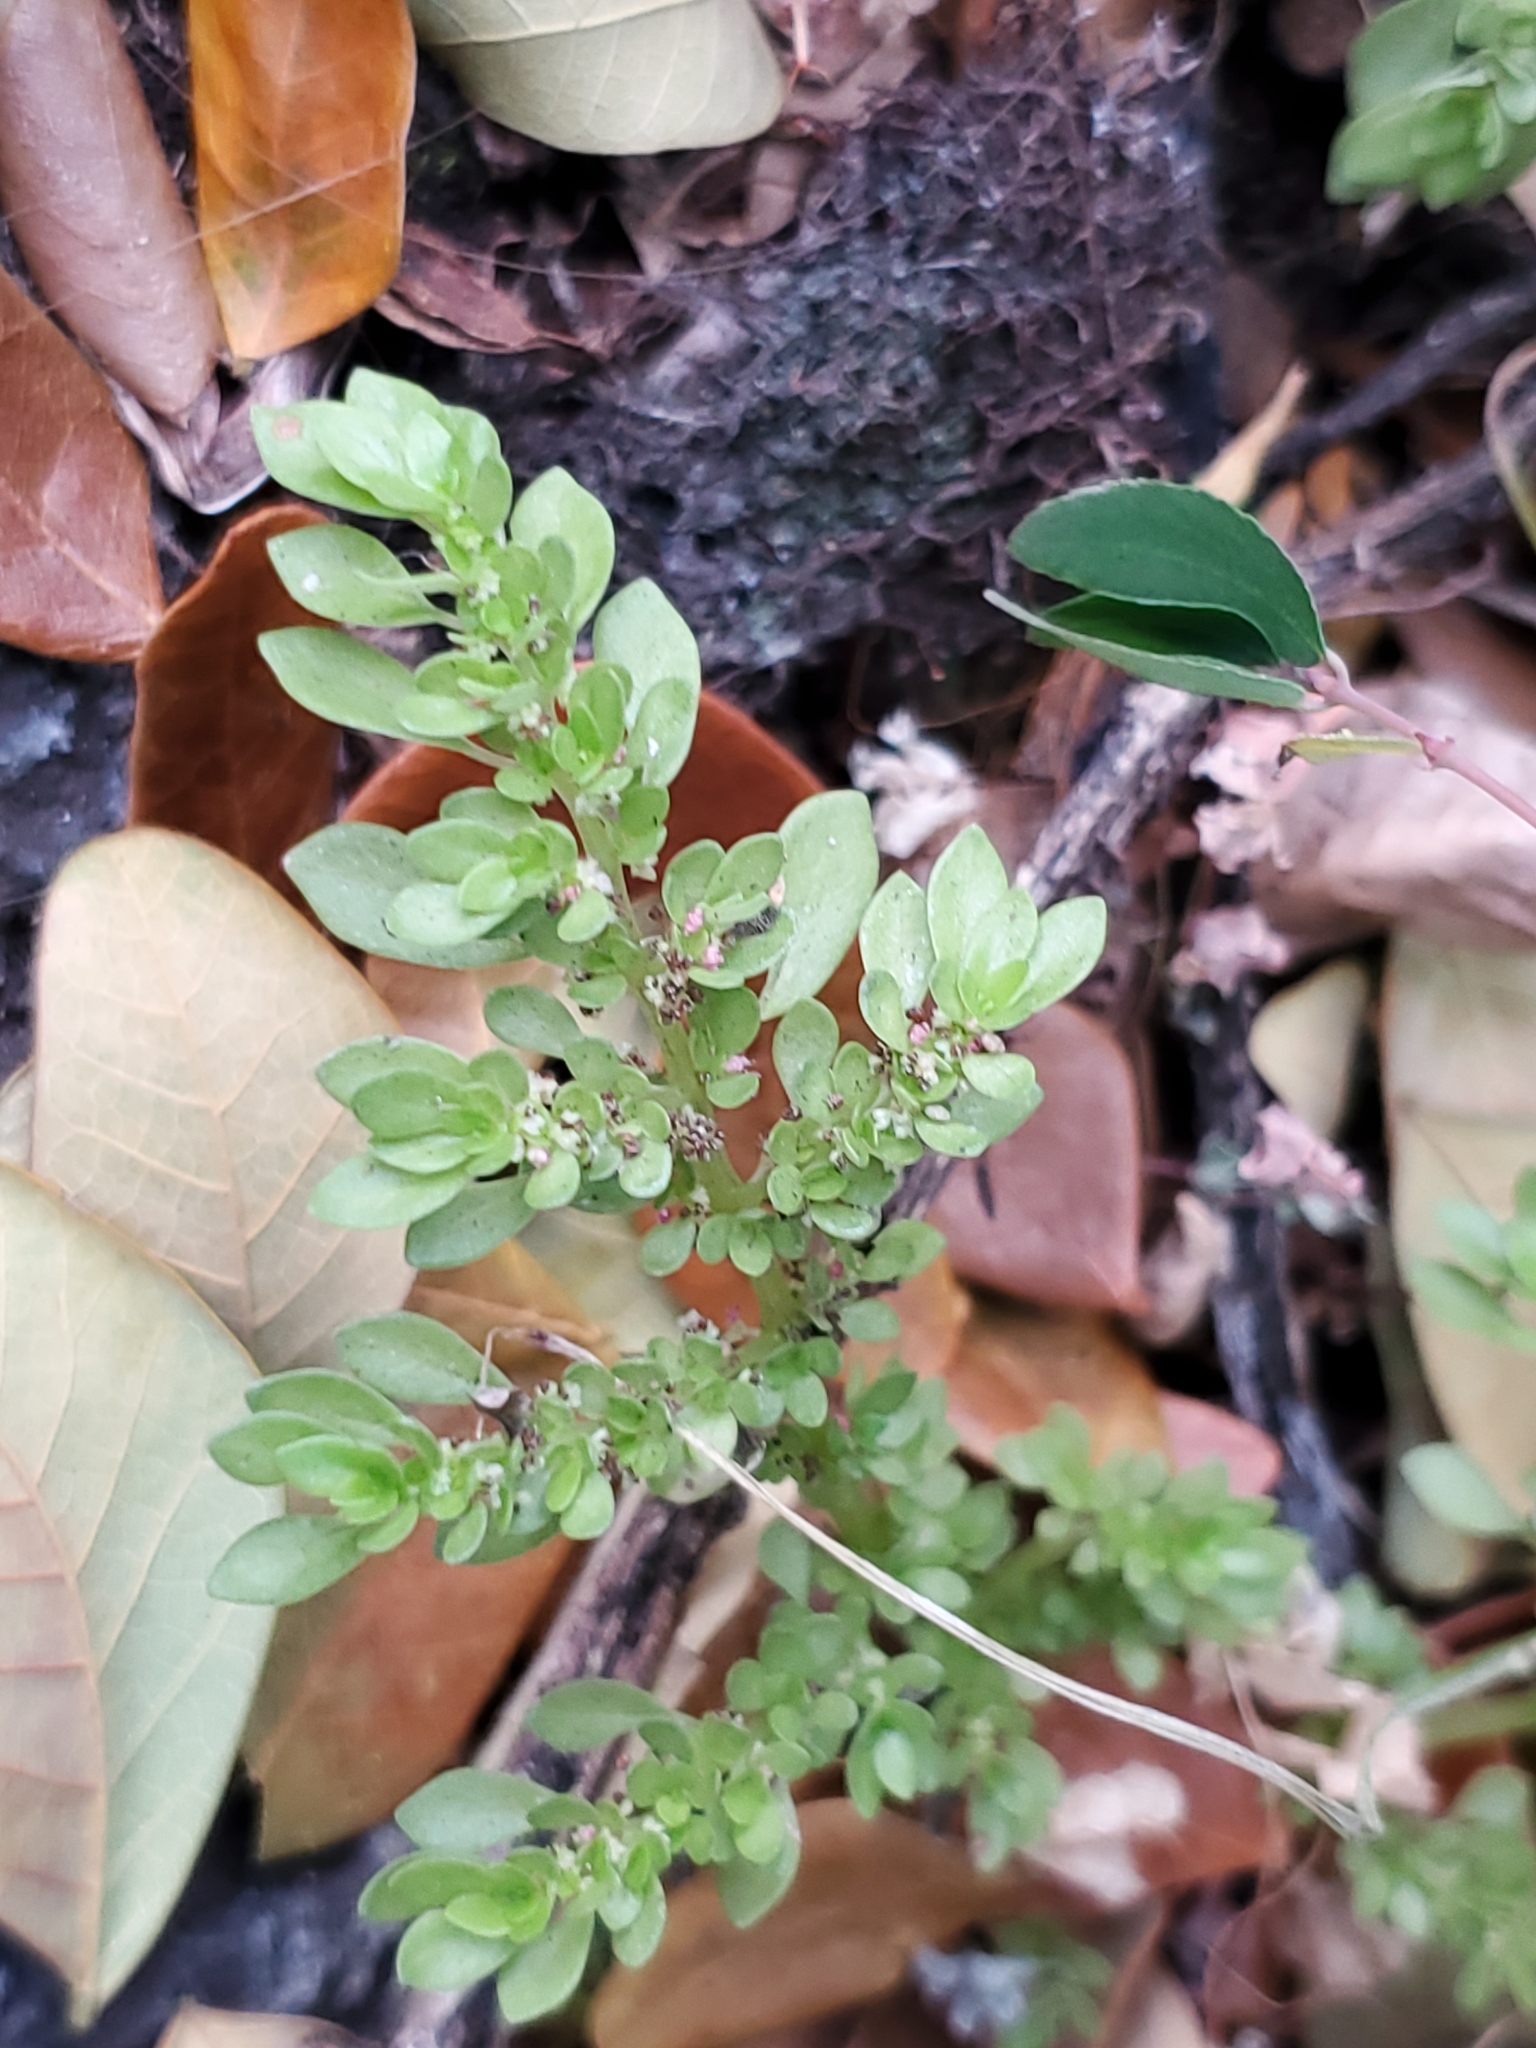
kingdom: Plantae
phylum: Tracheophyta
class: Magnoliopsida
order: Rosales
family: Urticaceae
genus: Pilea
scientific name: Pilea microphylla
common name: Artillery-plant
